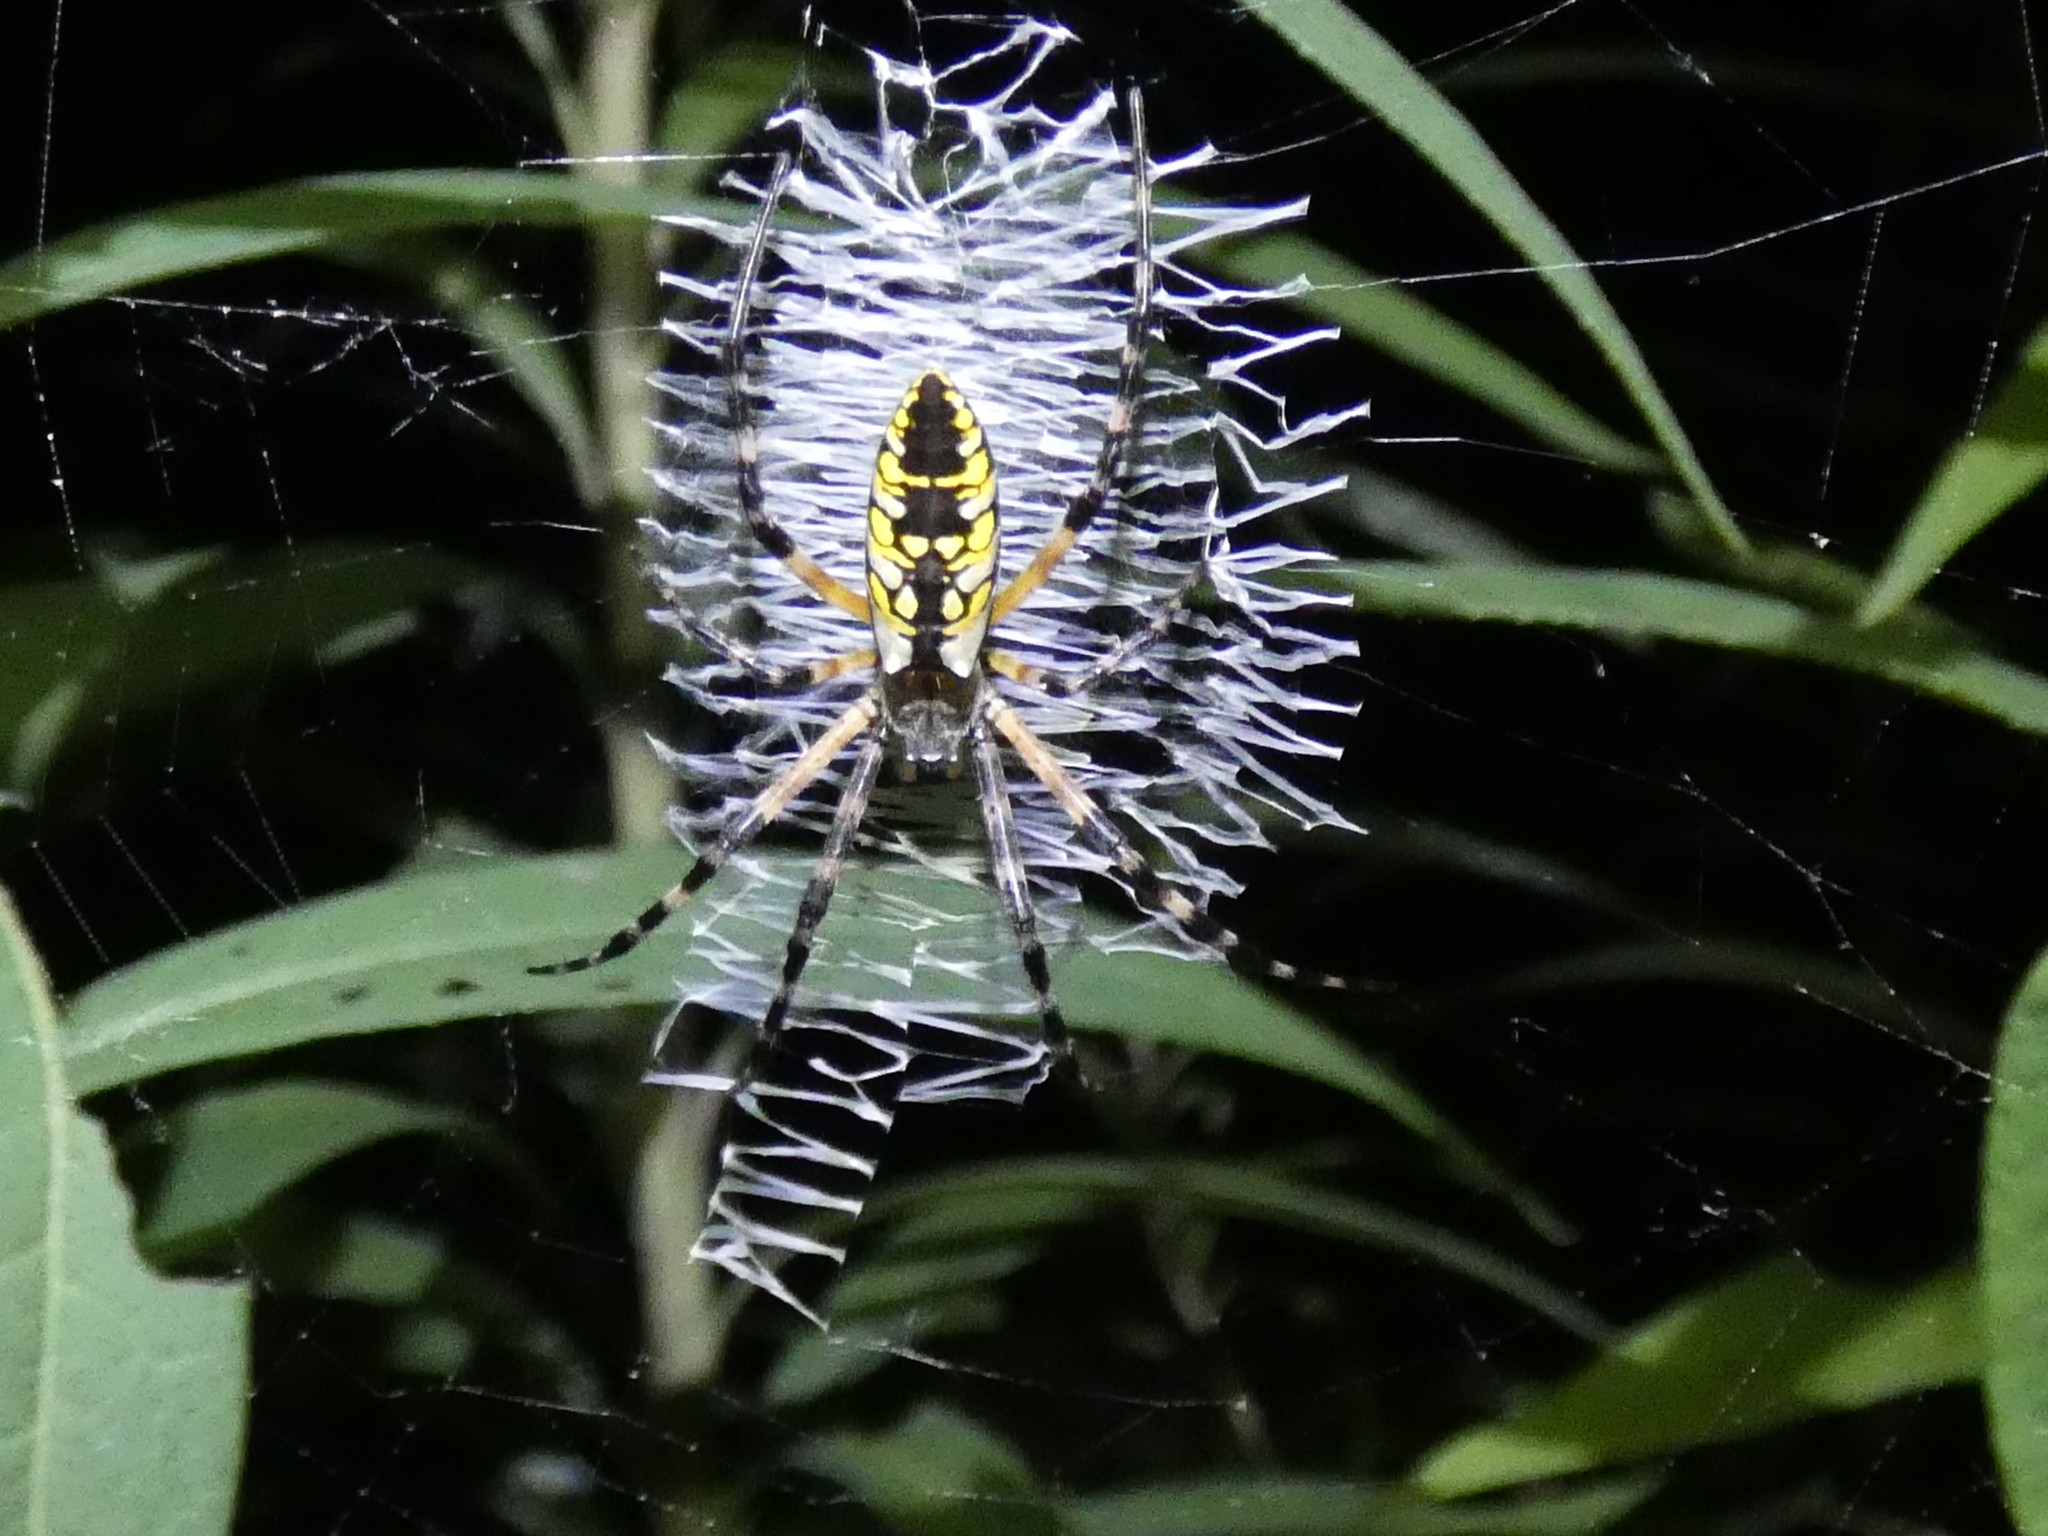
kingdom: Animalia
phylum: Arthropoda
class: Arachnida
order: Araneae
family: Araneidae
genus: Argiope
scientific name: Argiope aurantia
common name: Orb weavers
